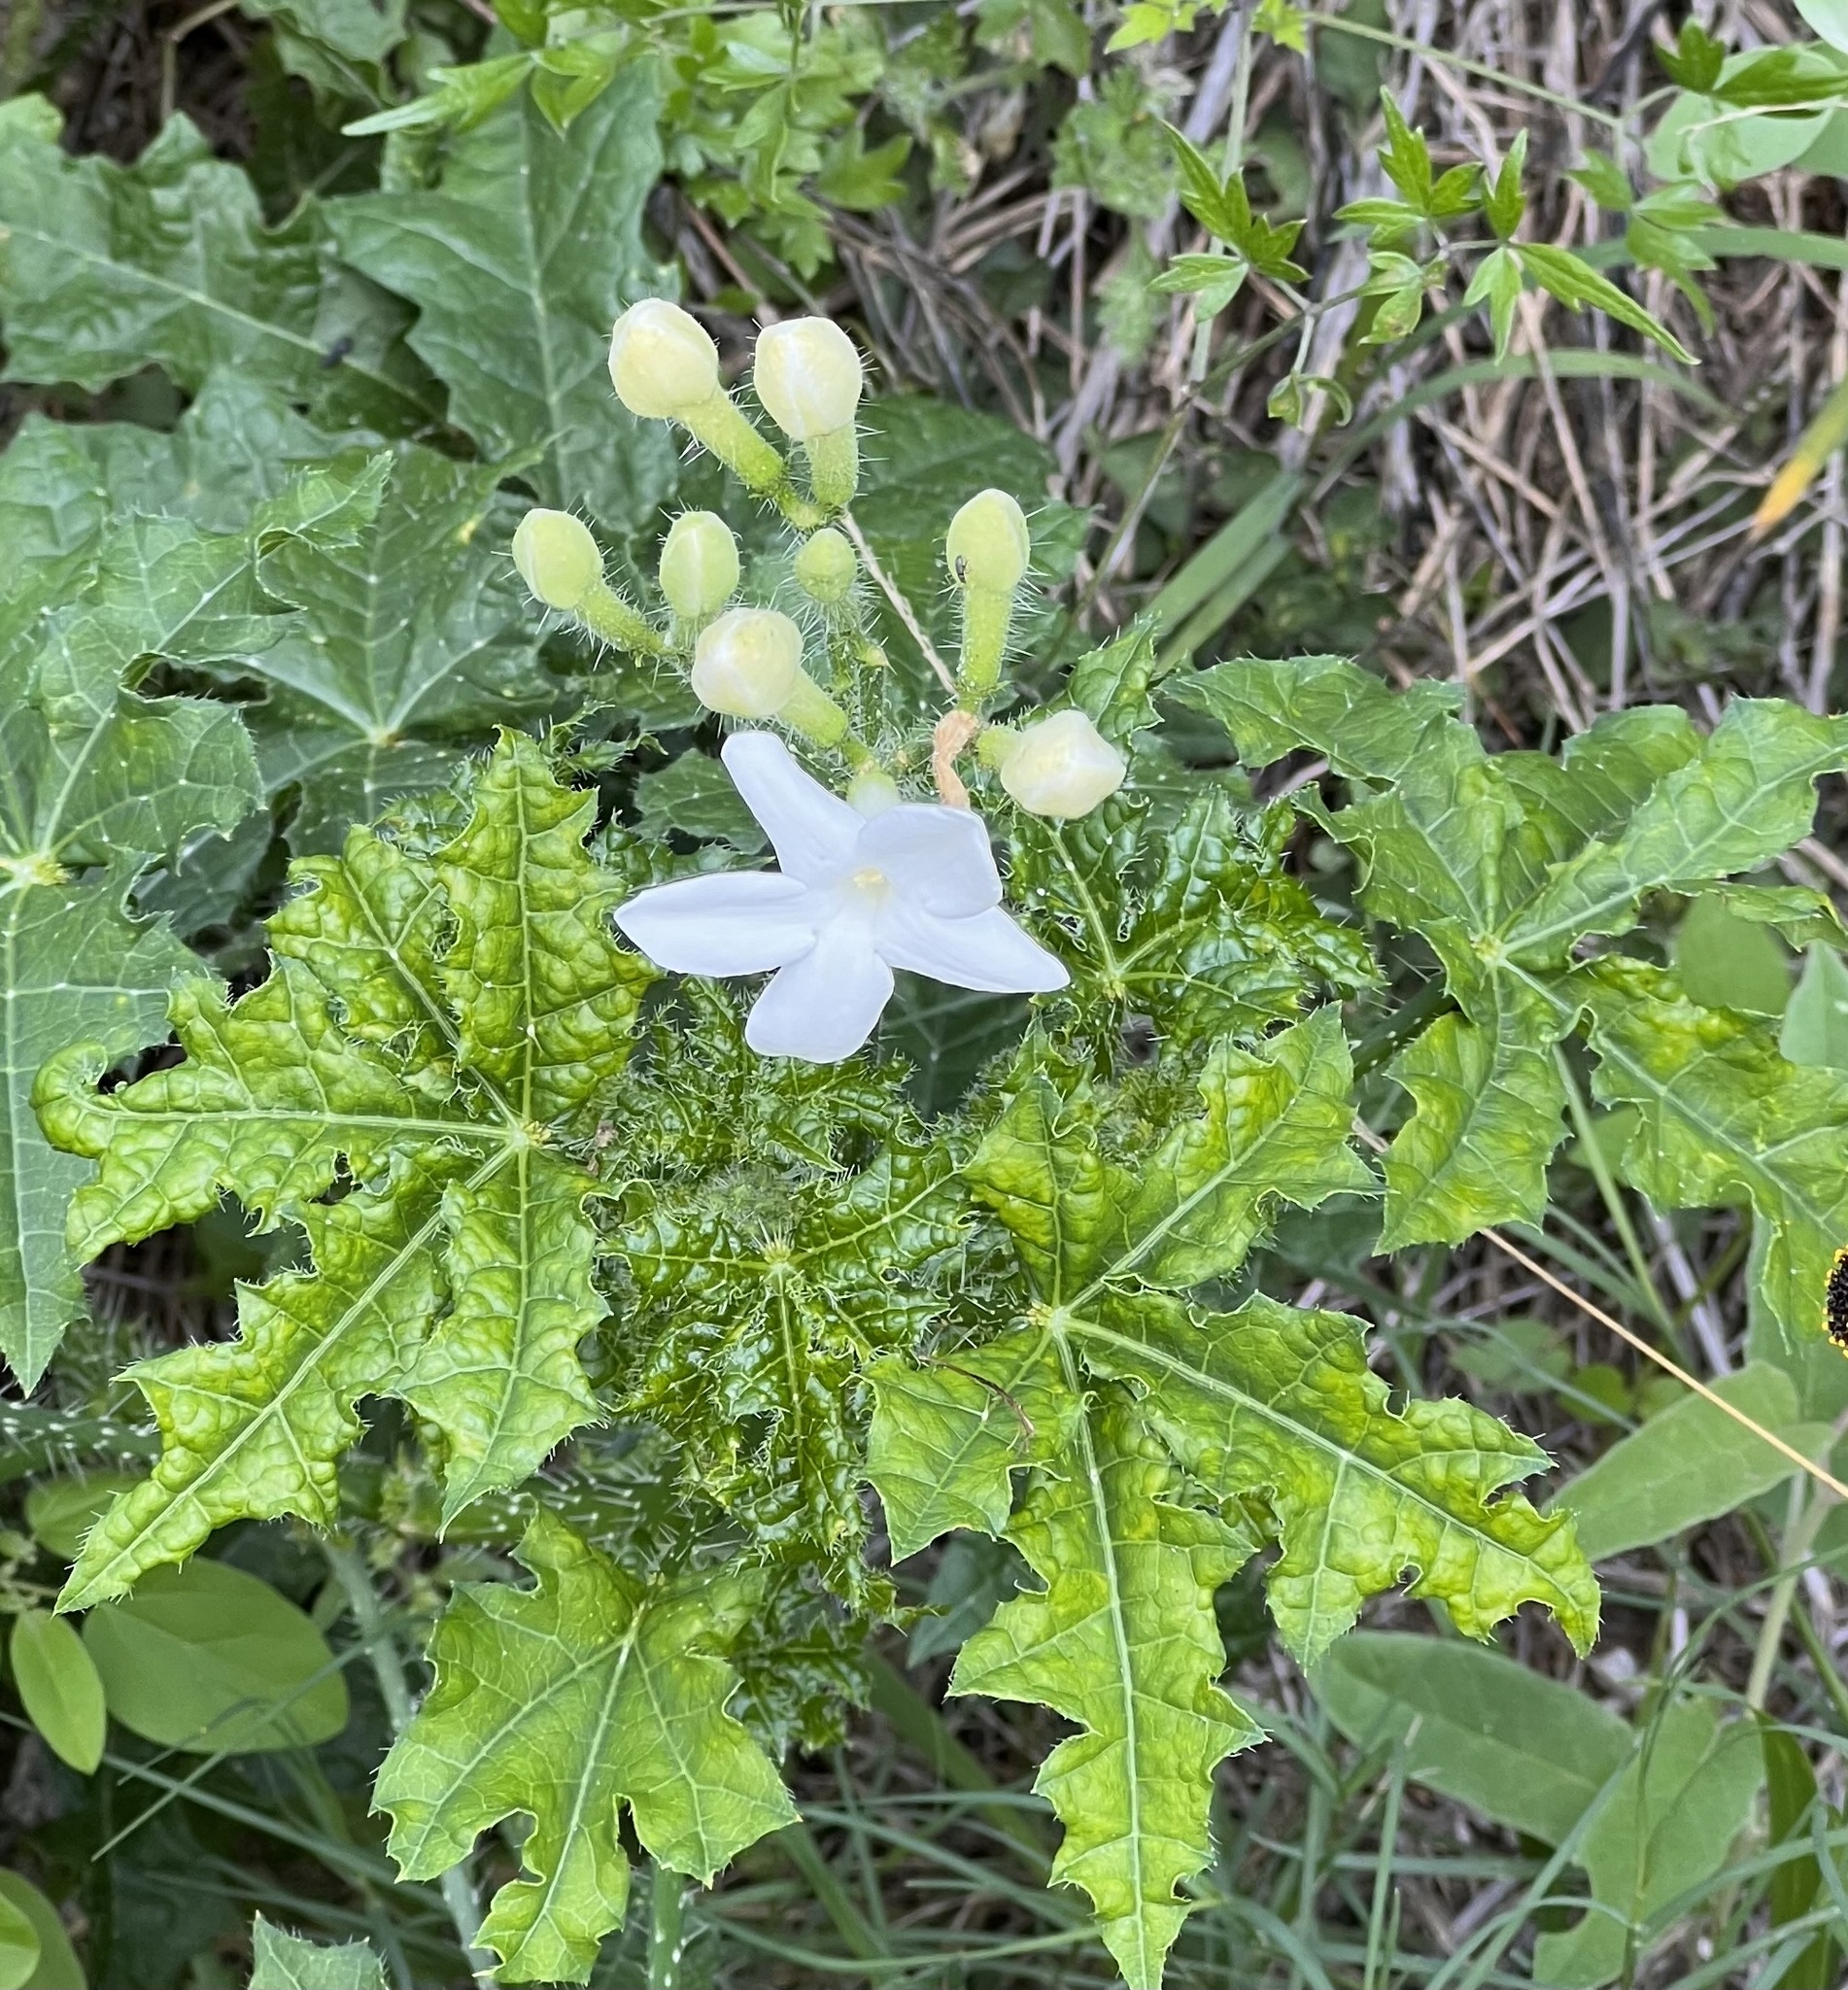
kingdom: Plantae
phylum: Tracheophyta
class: Magnoliopsida
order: Malpighiales
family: Euphorbiaceae
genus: Cnidoscolus
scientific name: Cnidoscolus texanus
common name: Texas bull-nettle
